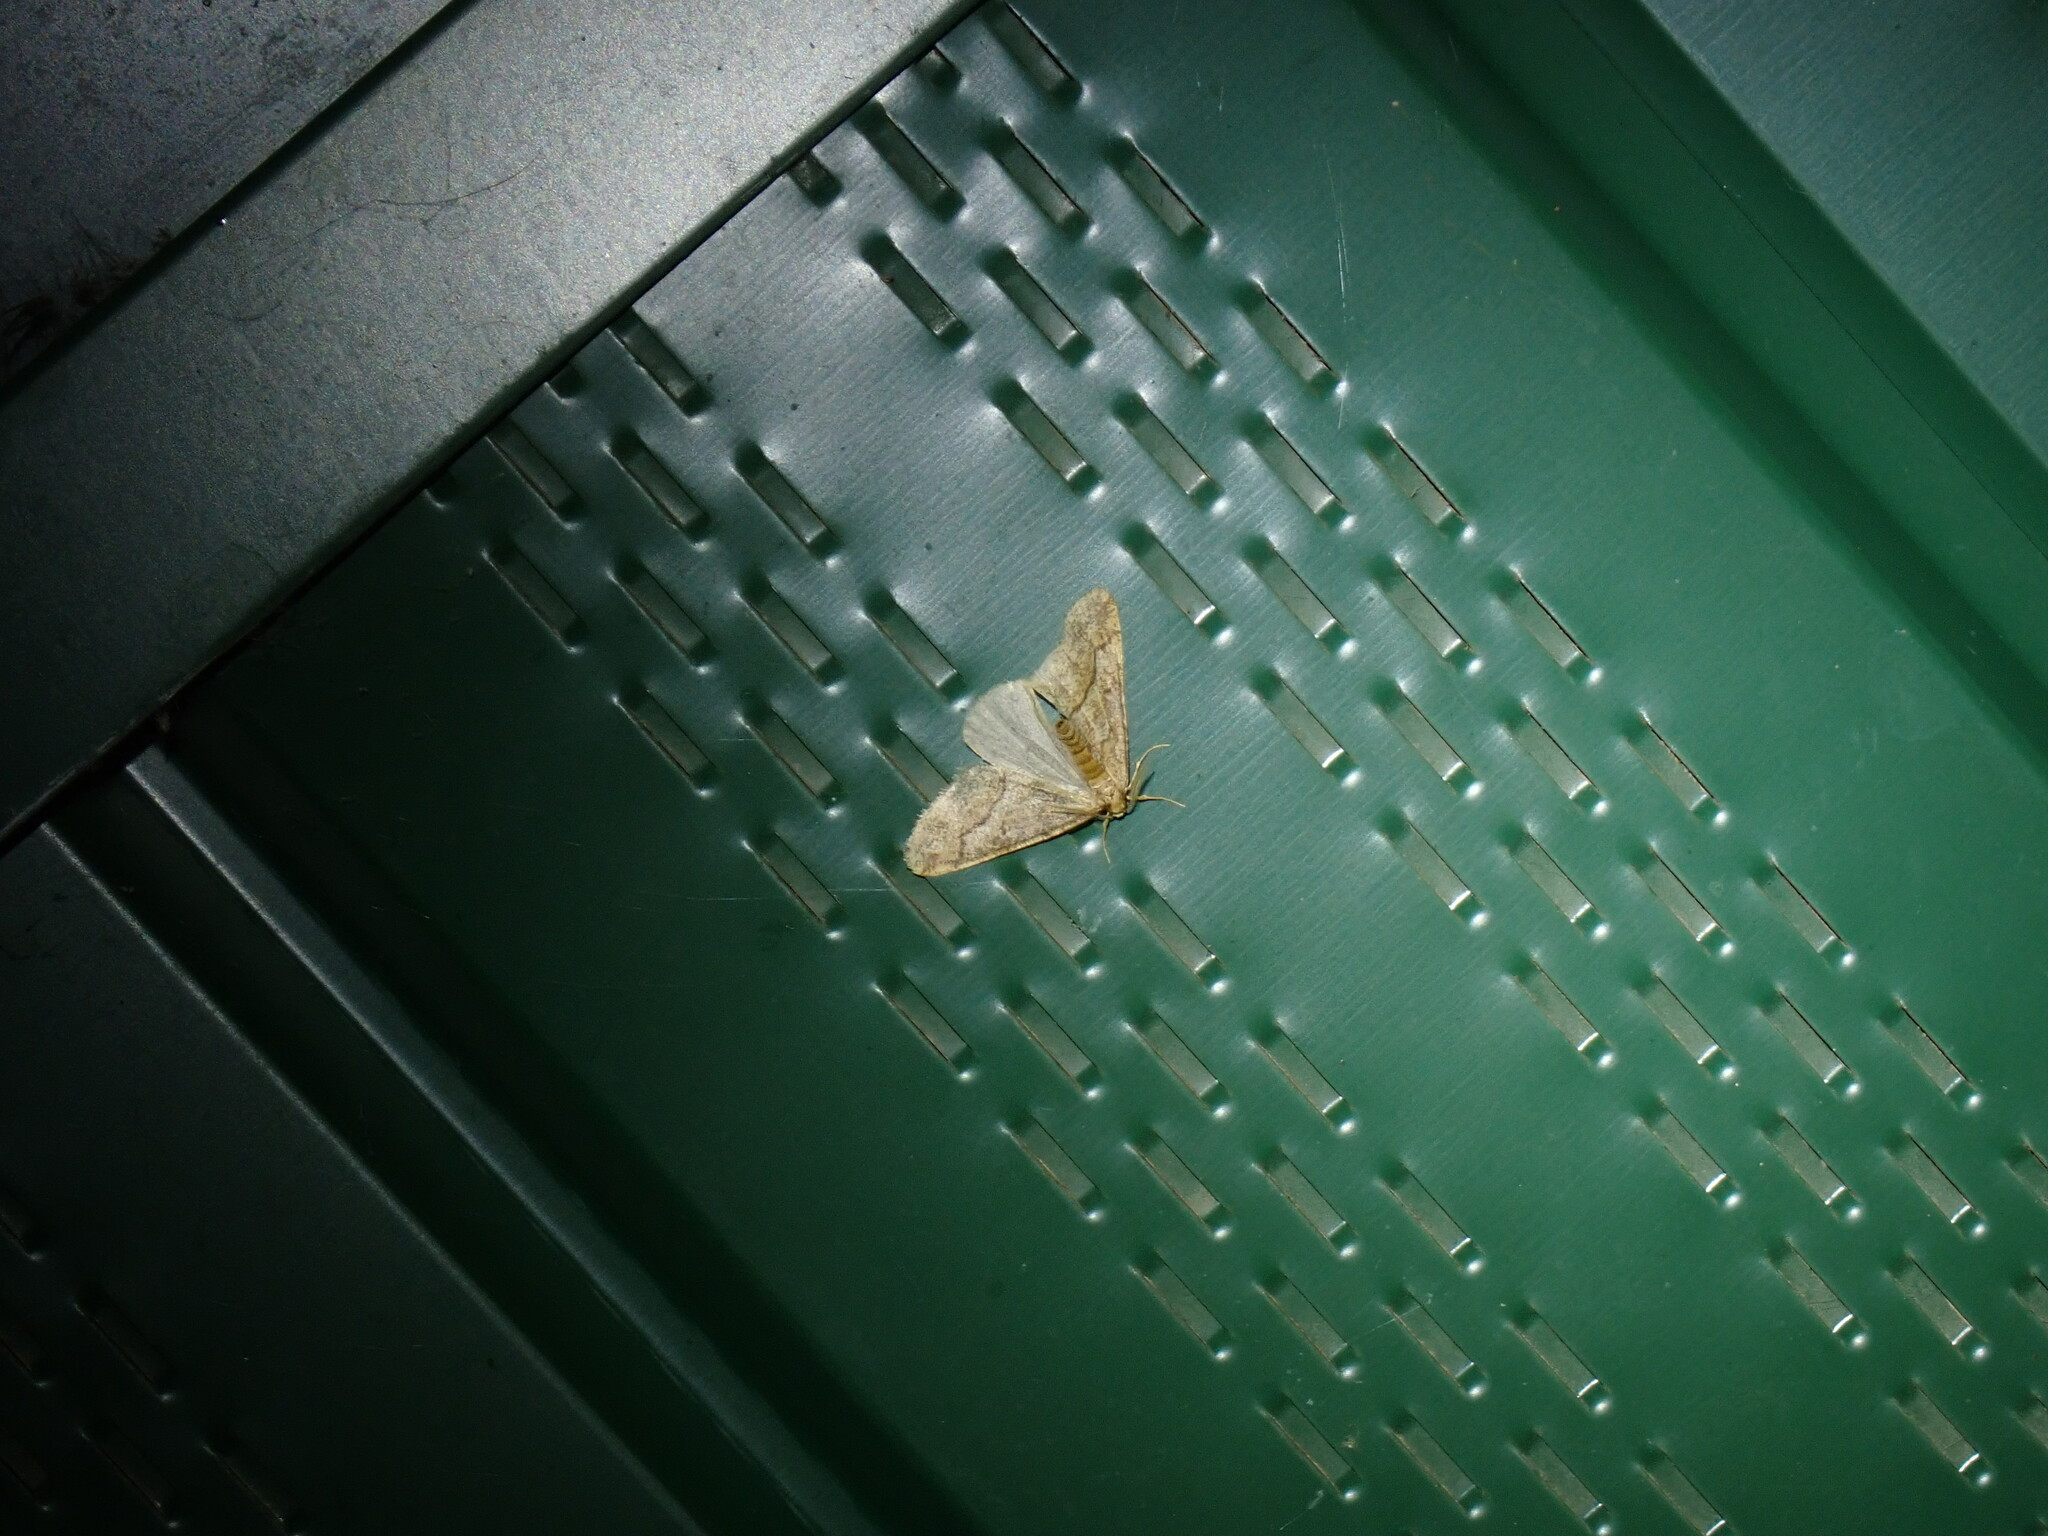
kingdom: Animalia
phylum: Arthropoda
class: Insecta
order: Lepidoptera
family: Geometridae
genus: Erannis
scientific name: Erannis tiliaria
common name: Linden looper
